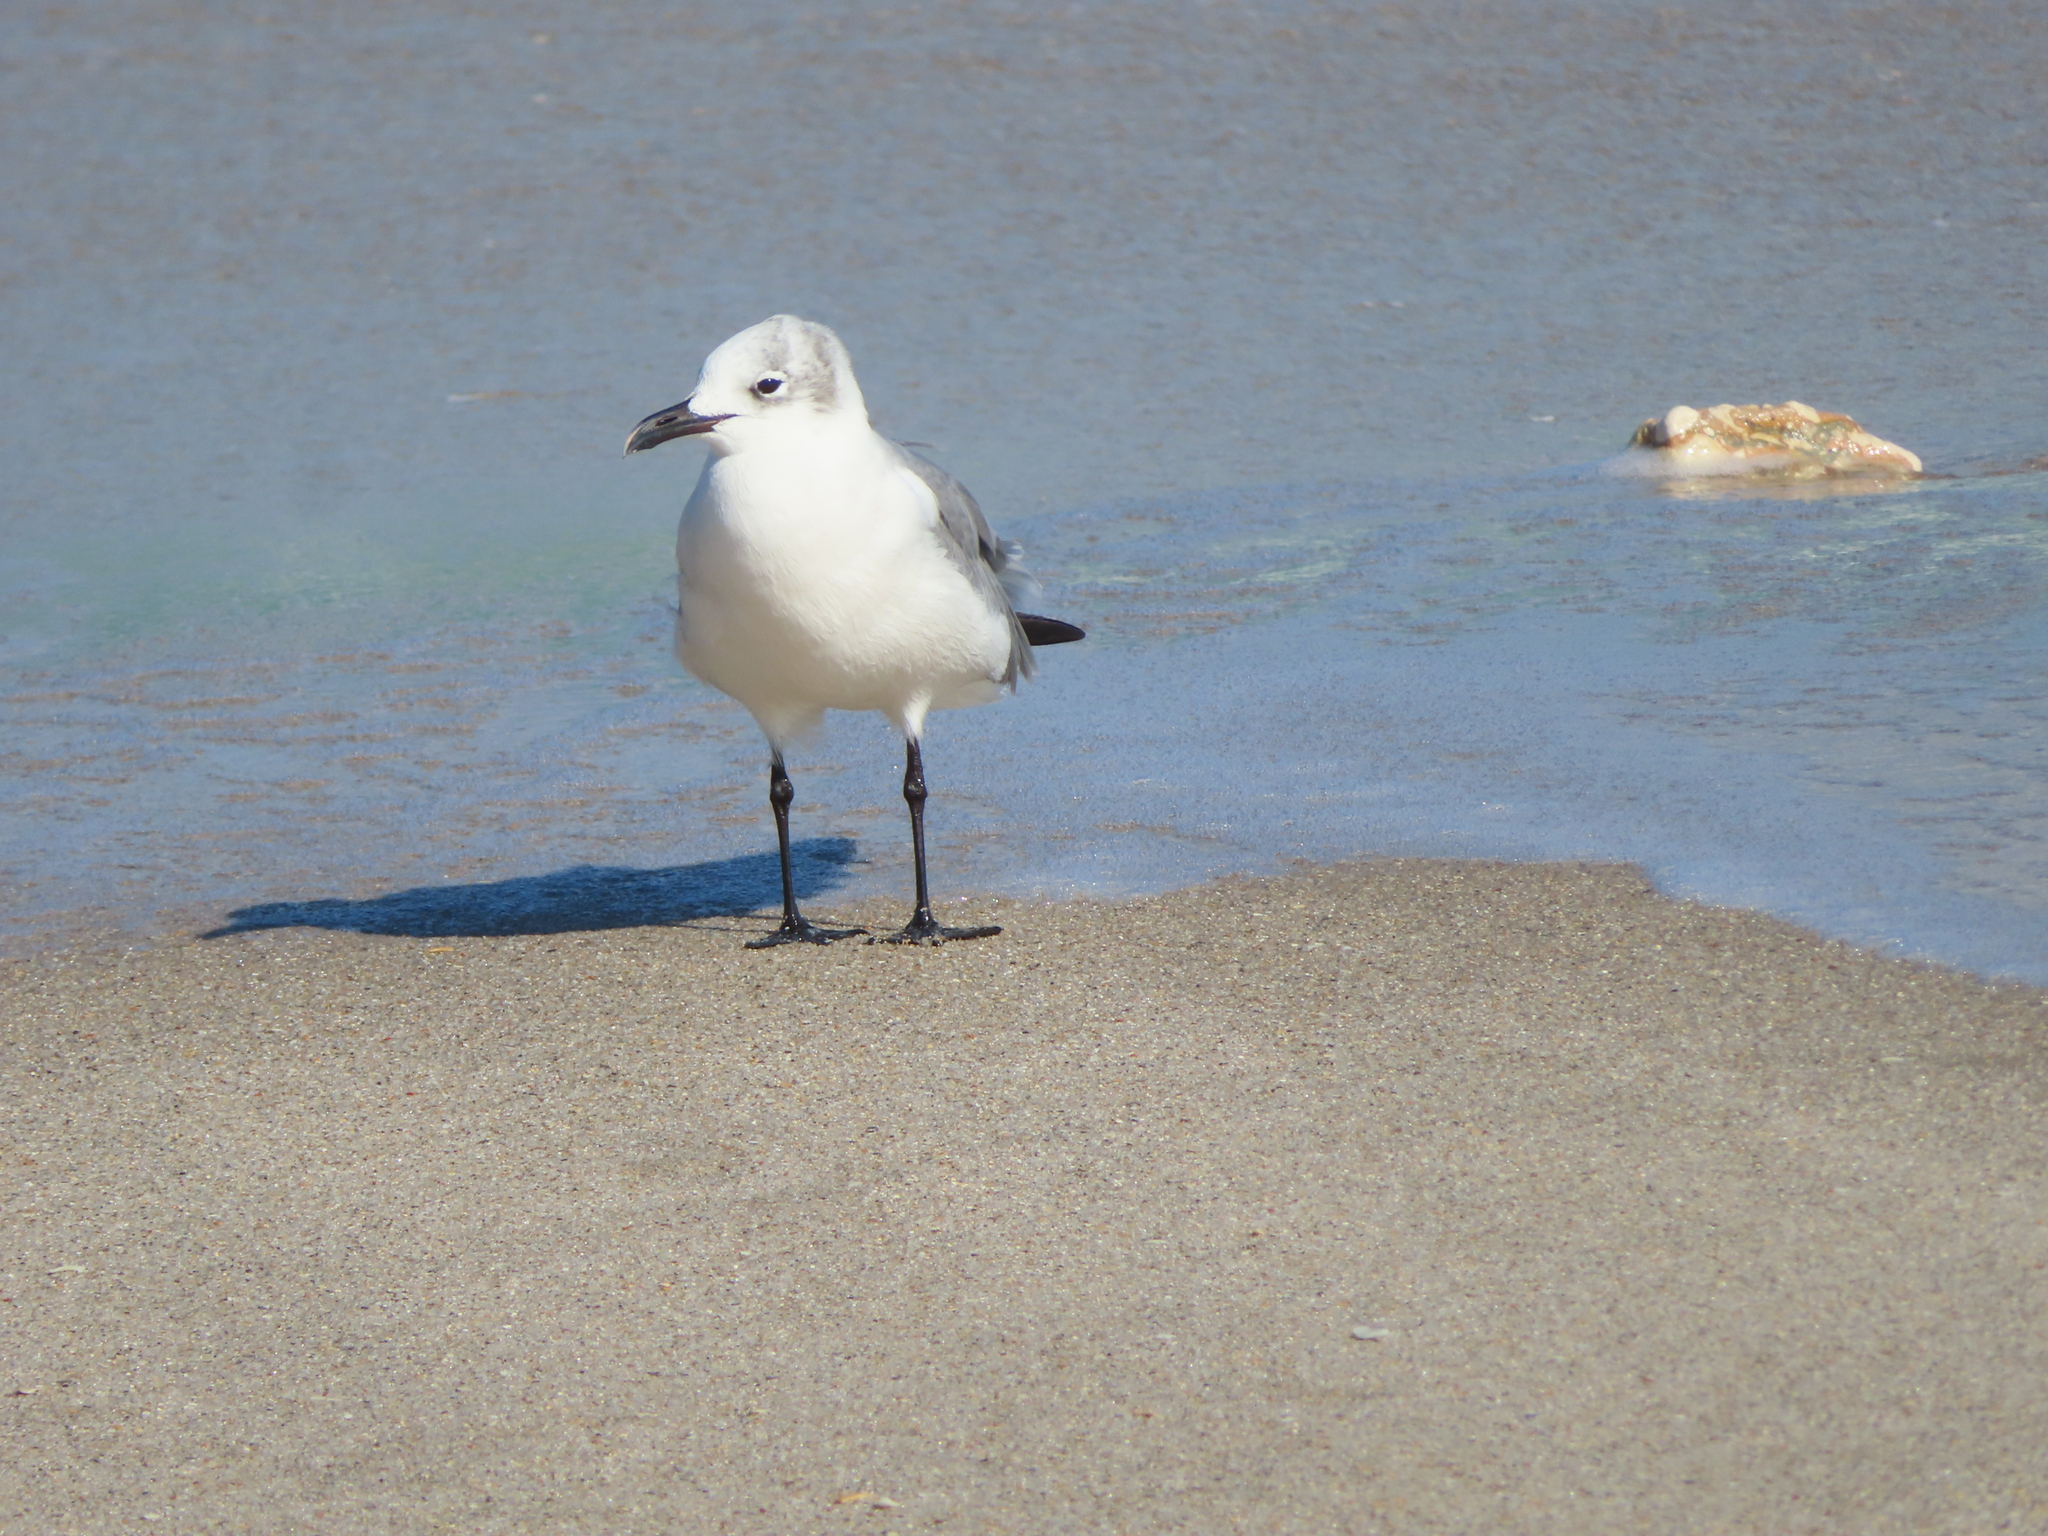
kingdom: Animalia
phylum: Chordata
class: Aves
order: Charadriiformes
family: Laridae
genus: Leucophaeus
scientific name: Leucophaeus atricilla
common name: Laughing gull
